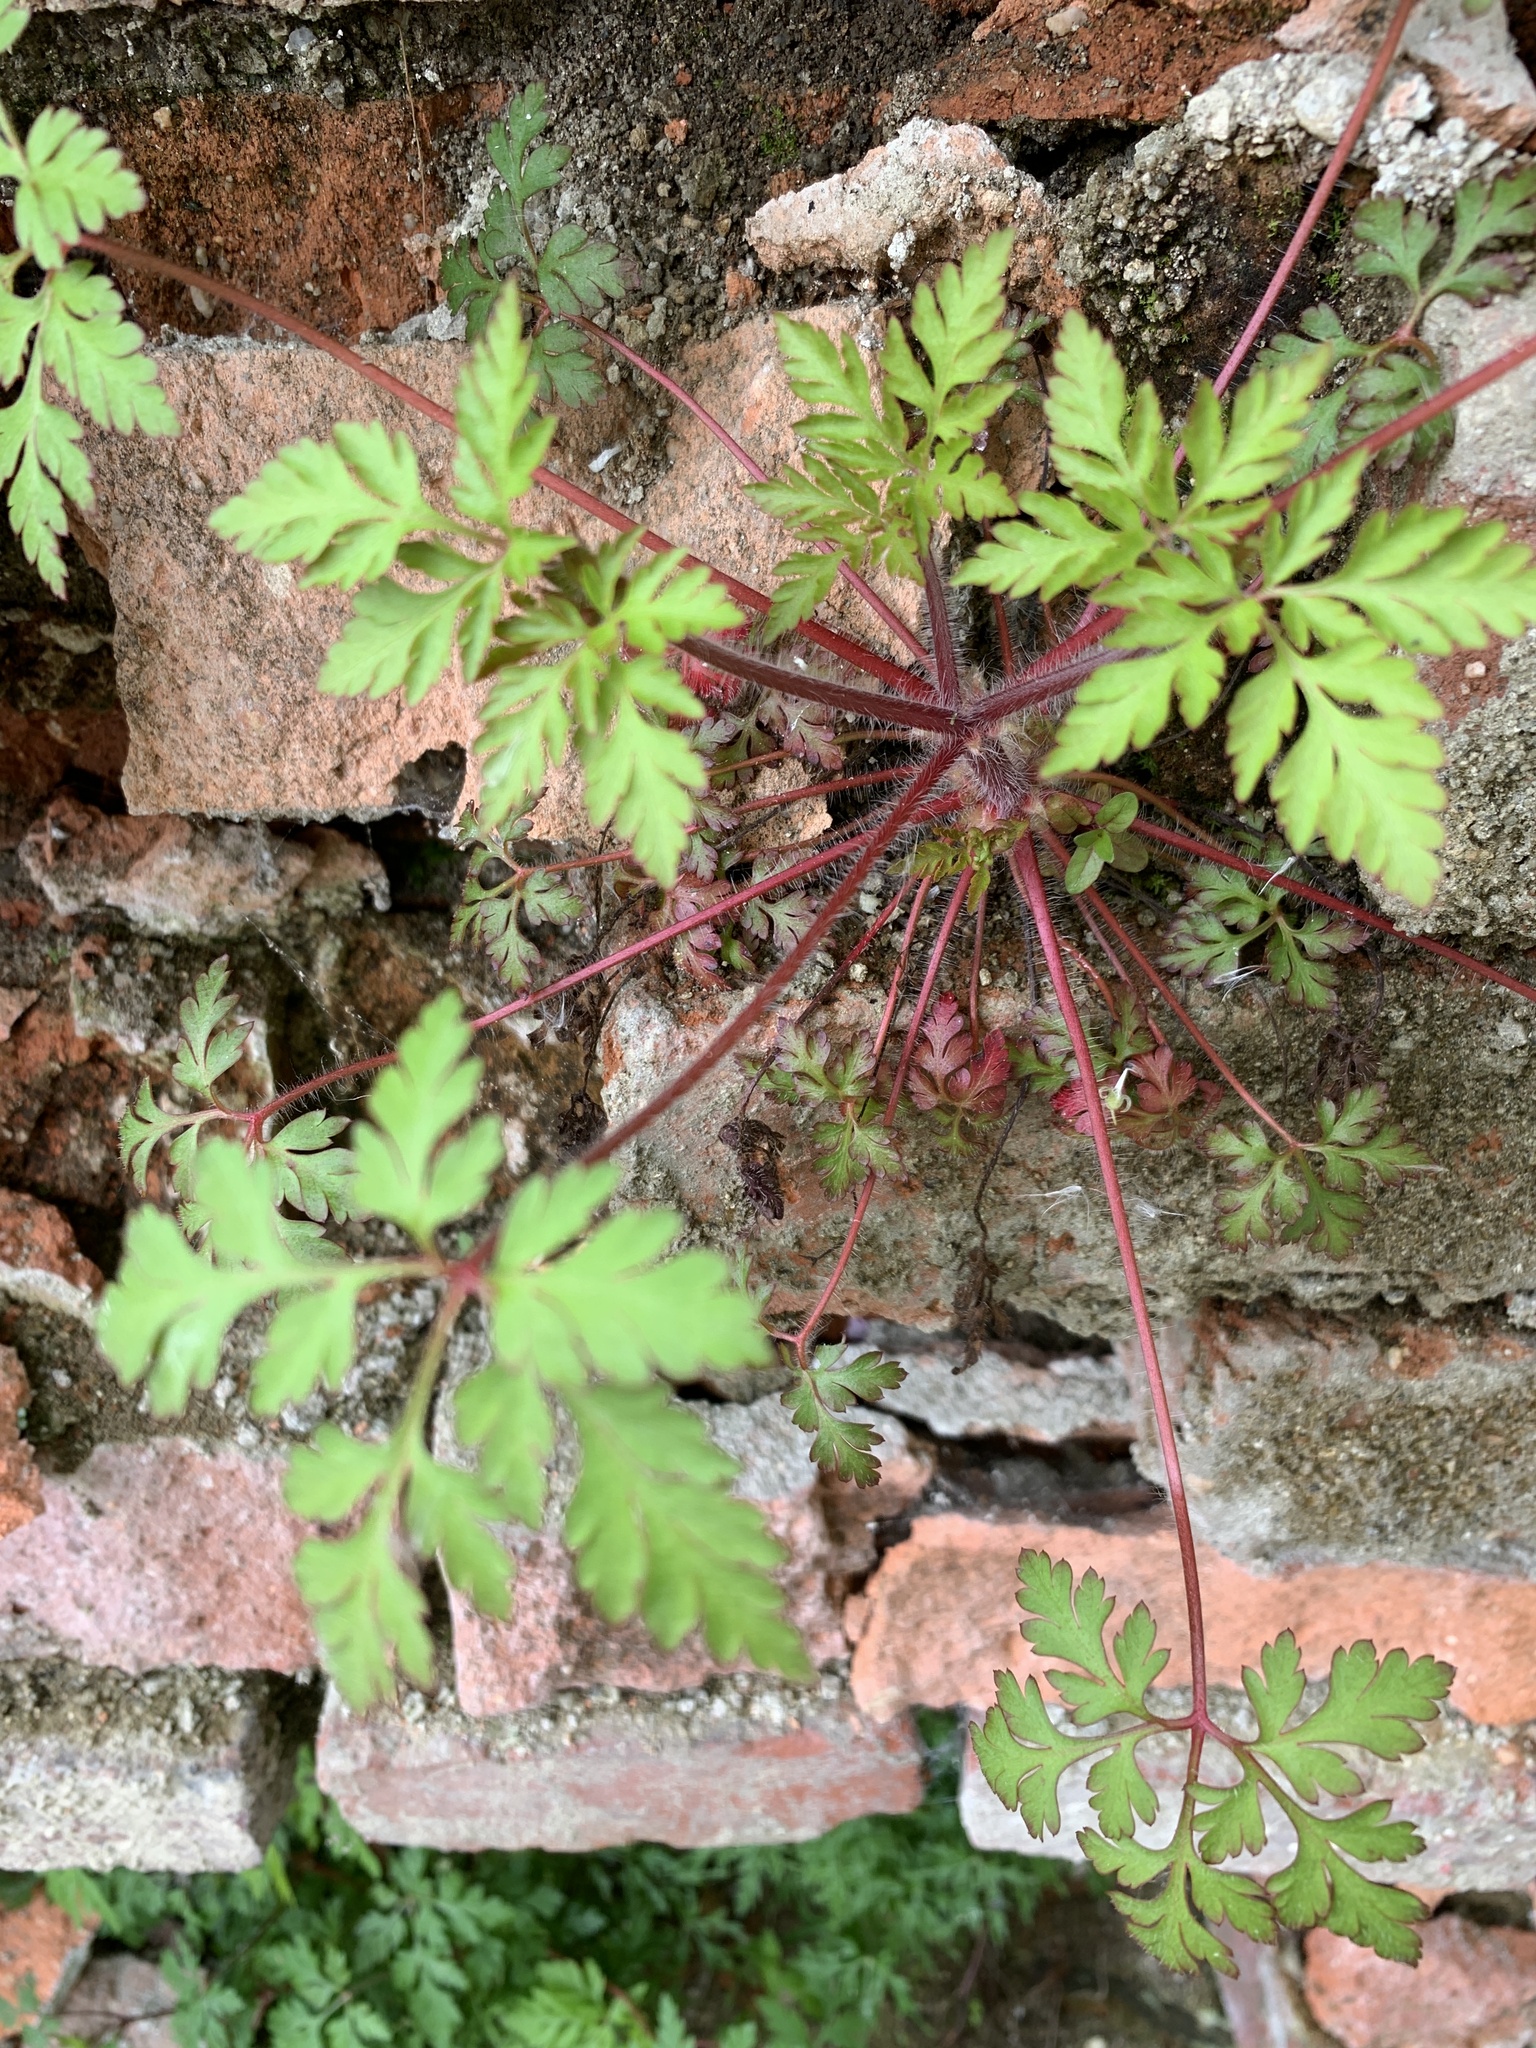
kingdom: Plantae
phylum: Tracheophyta
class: Magnoliopsida
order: Geraniales
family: Geraniaceae
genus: Geranium
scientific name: Geranium robertianum
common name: Herb-robert
